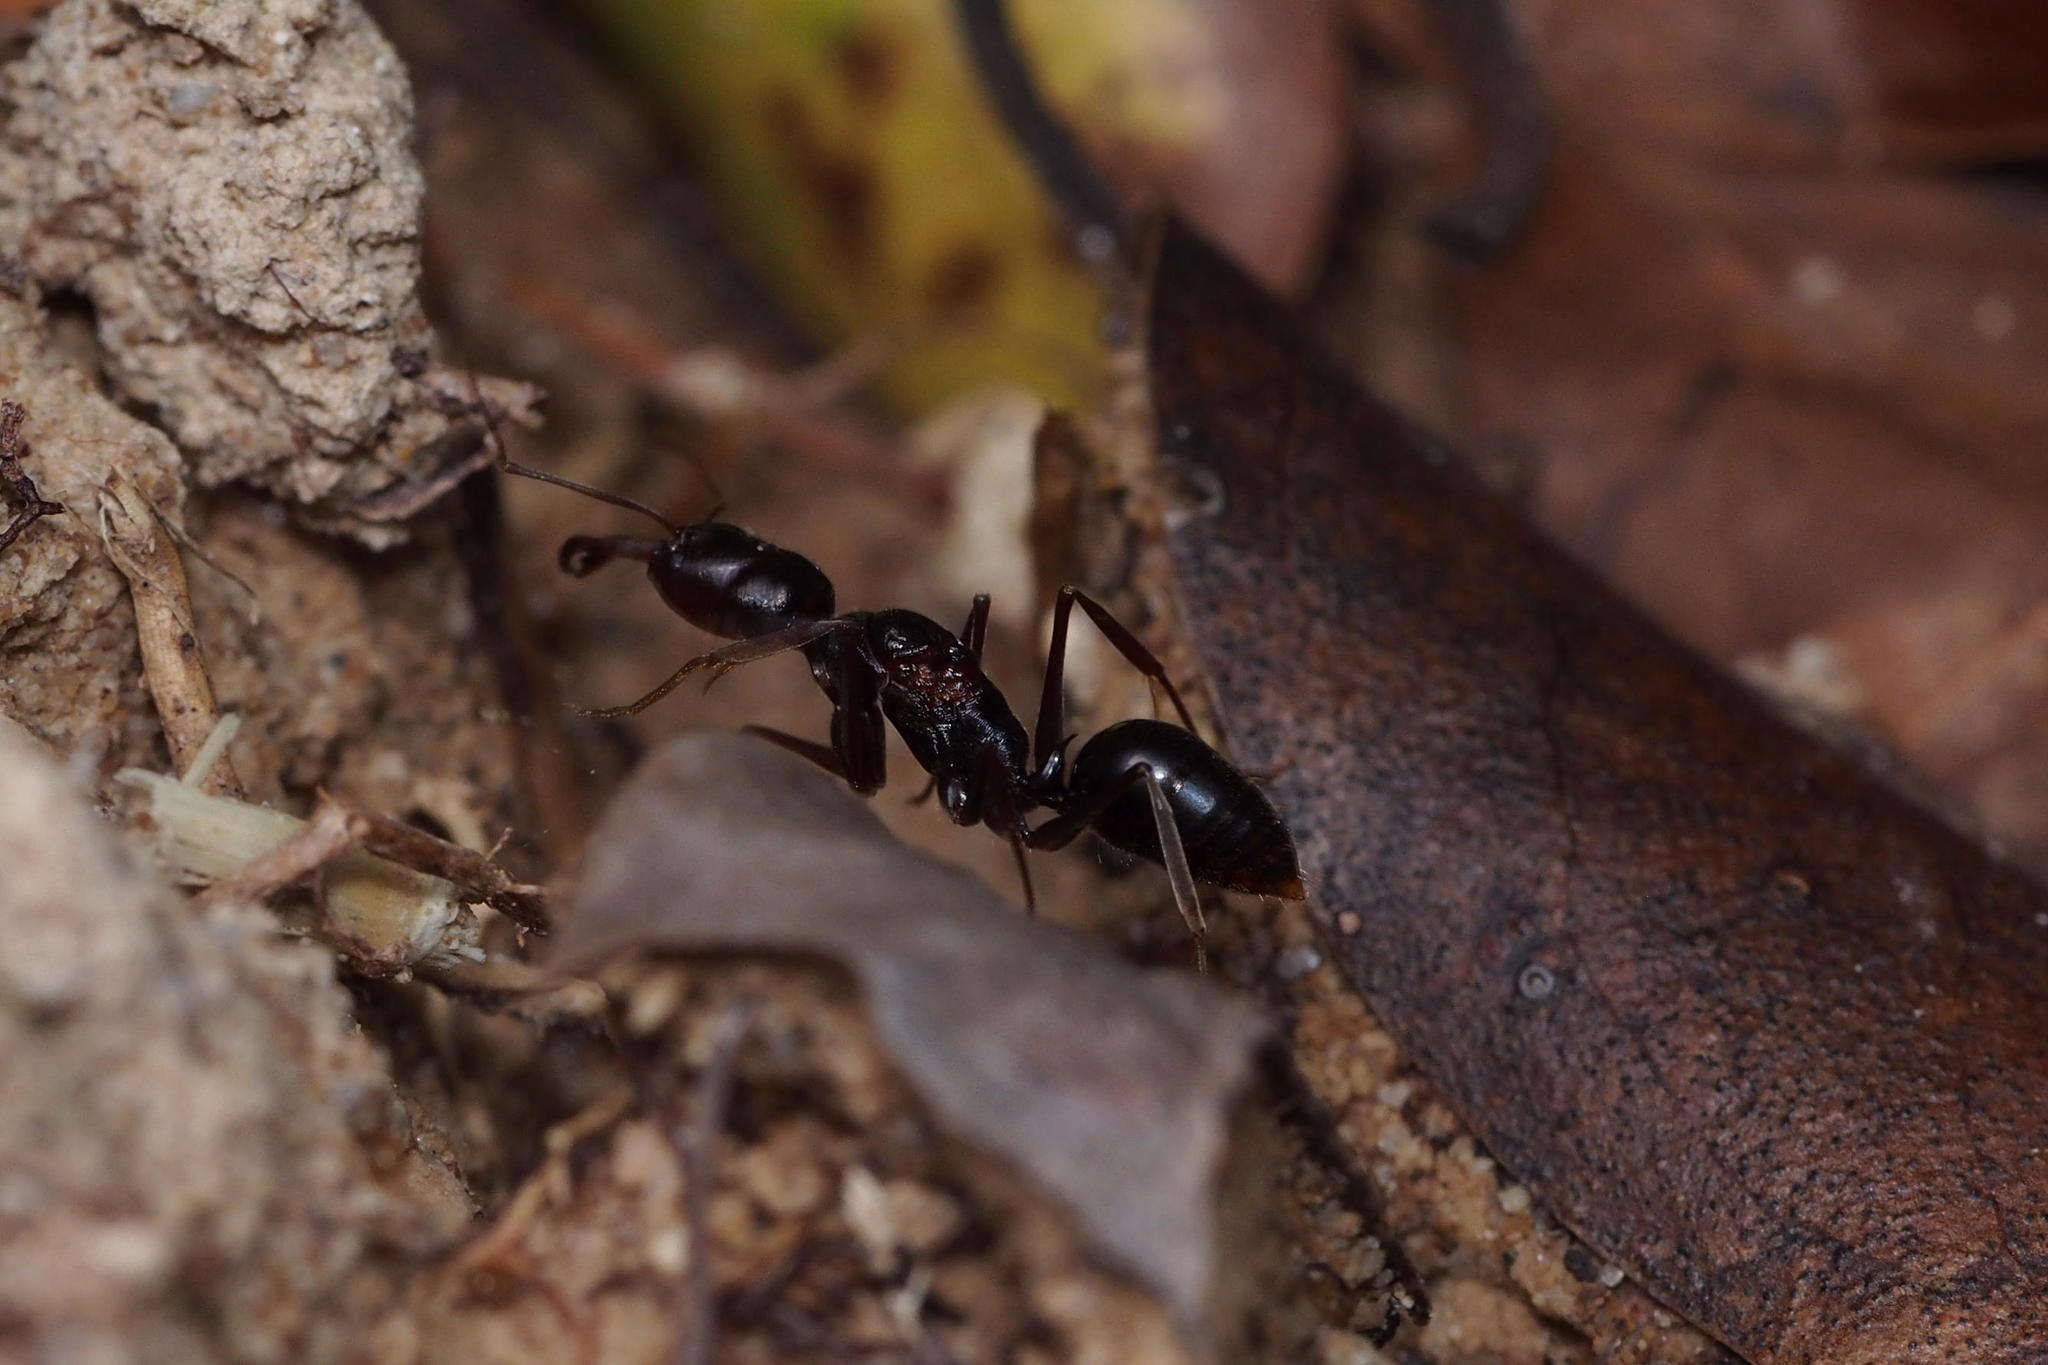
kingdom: Animalia
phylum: Arthropoda
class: Insecta
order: Hymenoptera
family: Formicidae
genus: Odontomachus
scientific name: Odontomachus monticola
